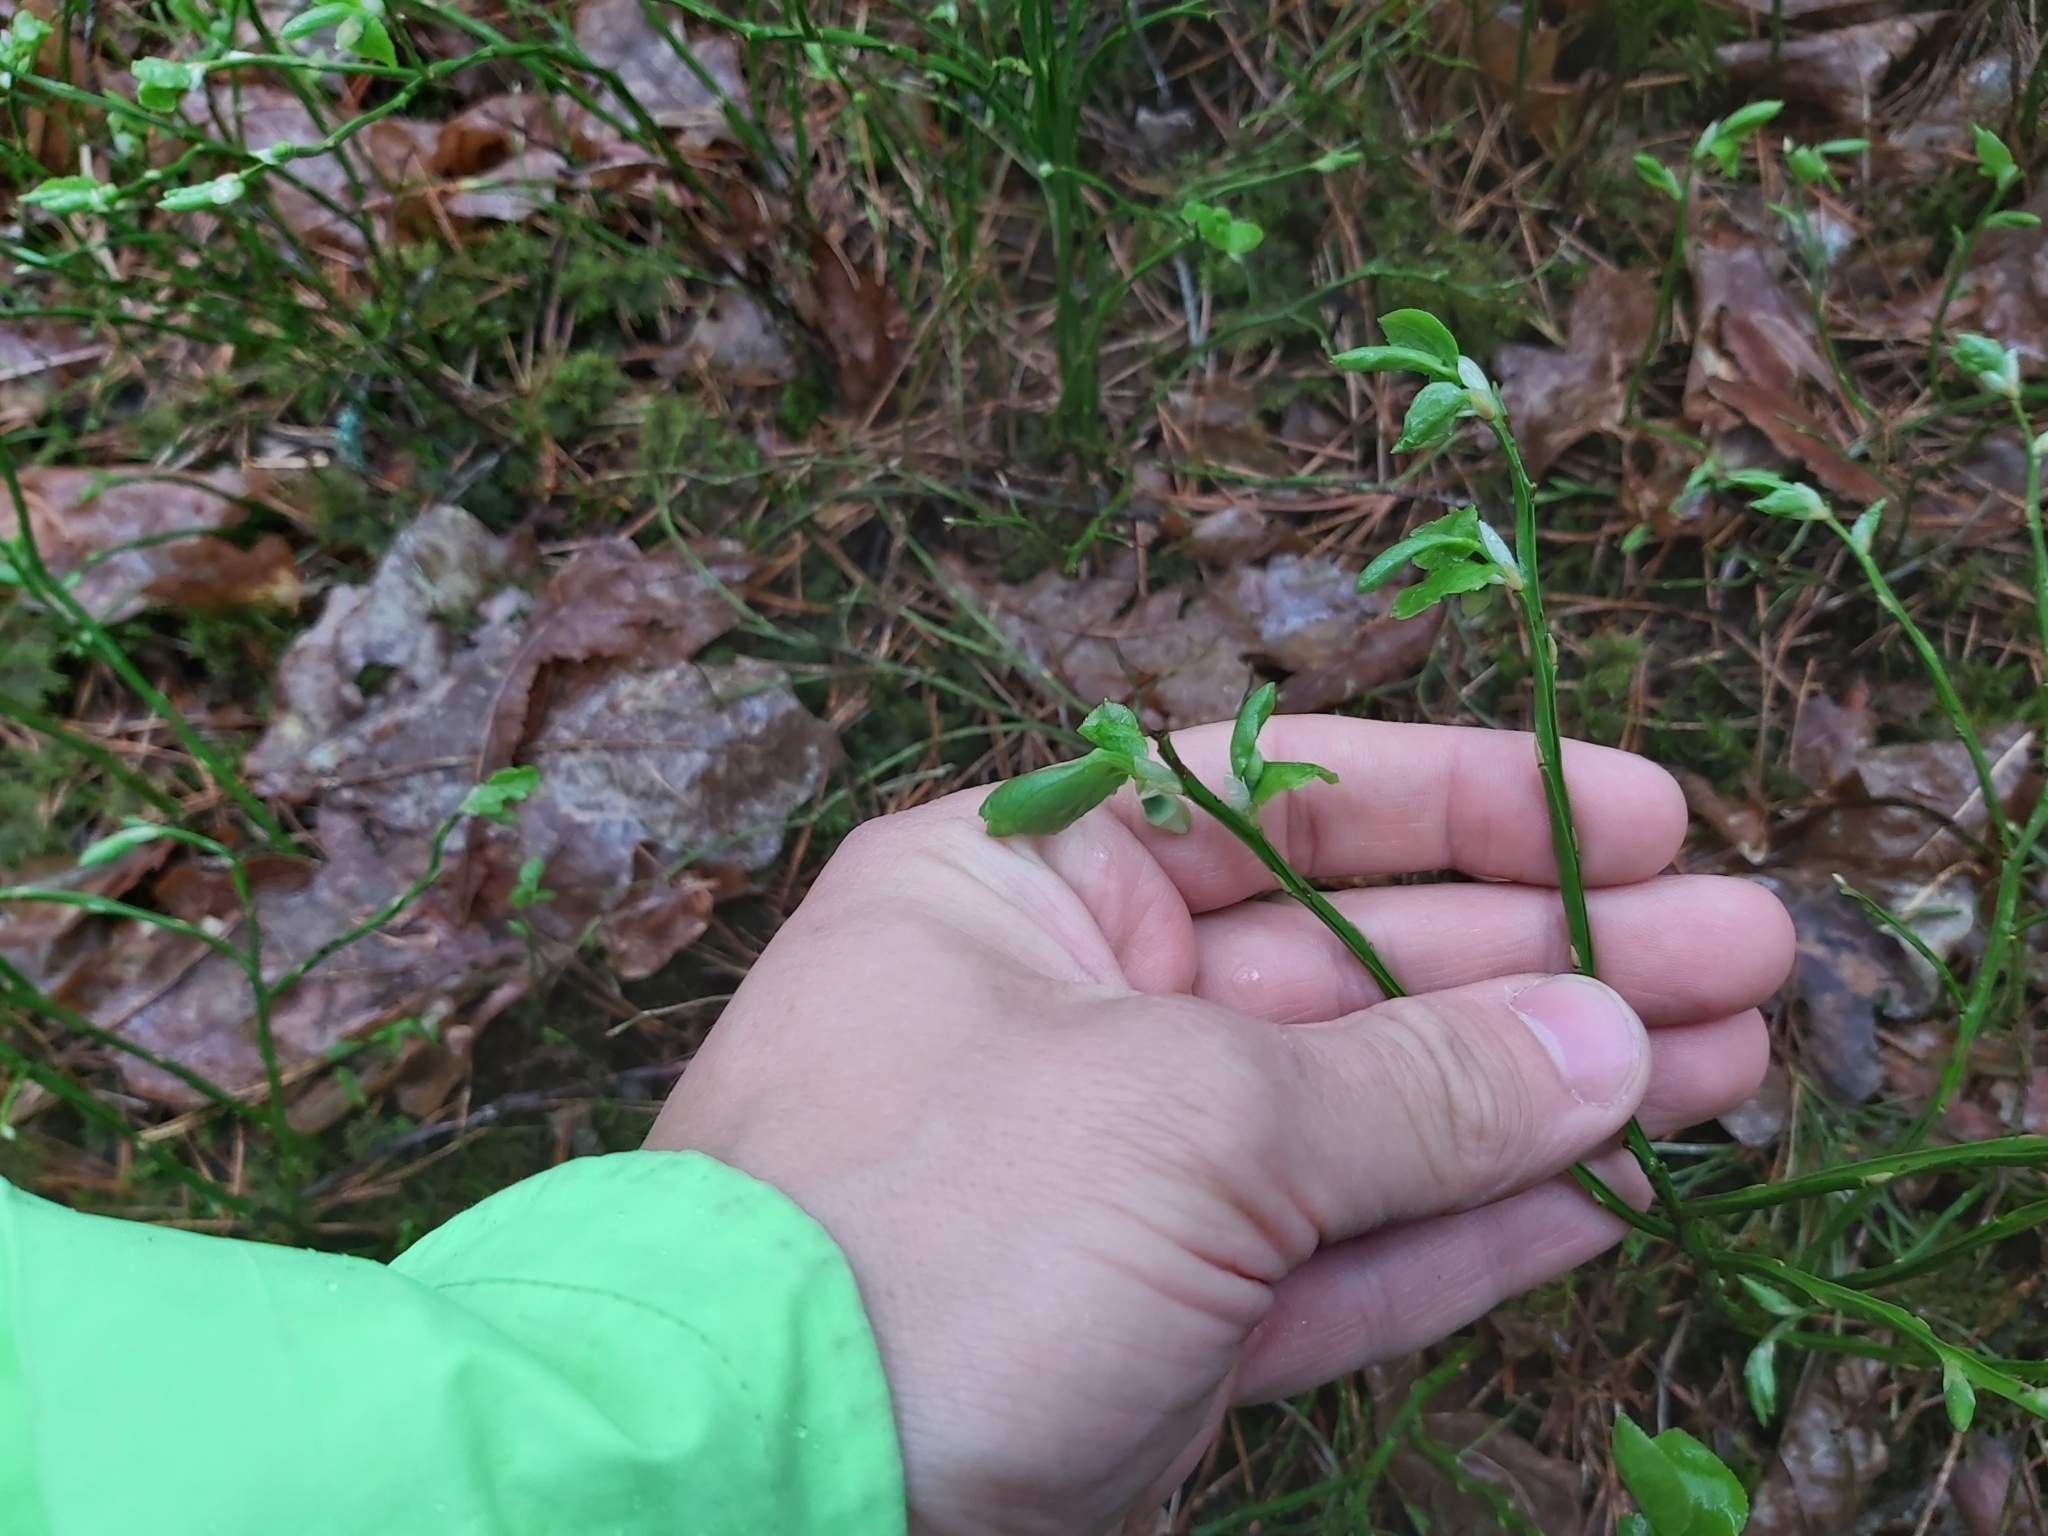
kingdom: Plantae
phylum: Tracheophyta
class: Magnoliopsida
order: Ericales
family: Ericaceae
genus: Vaccinium
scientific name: Vaccinium myrtillus
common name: Bilberry
